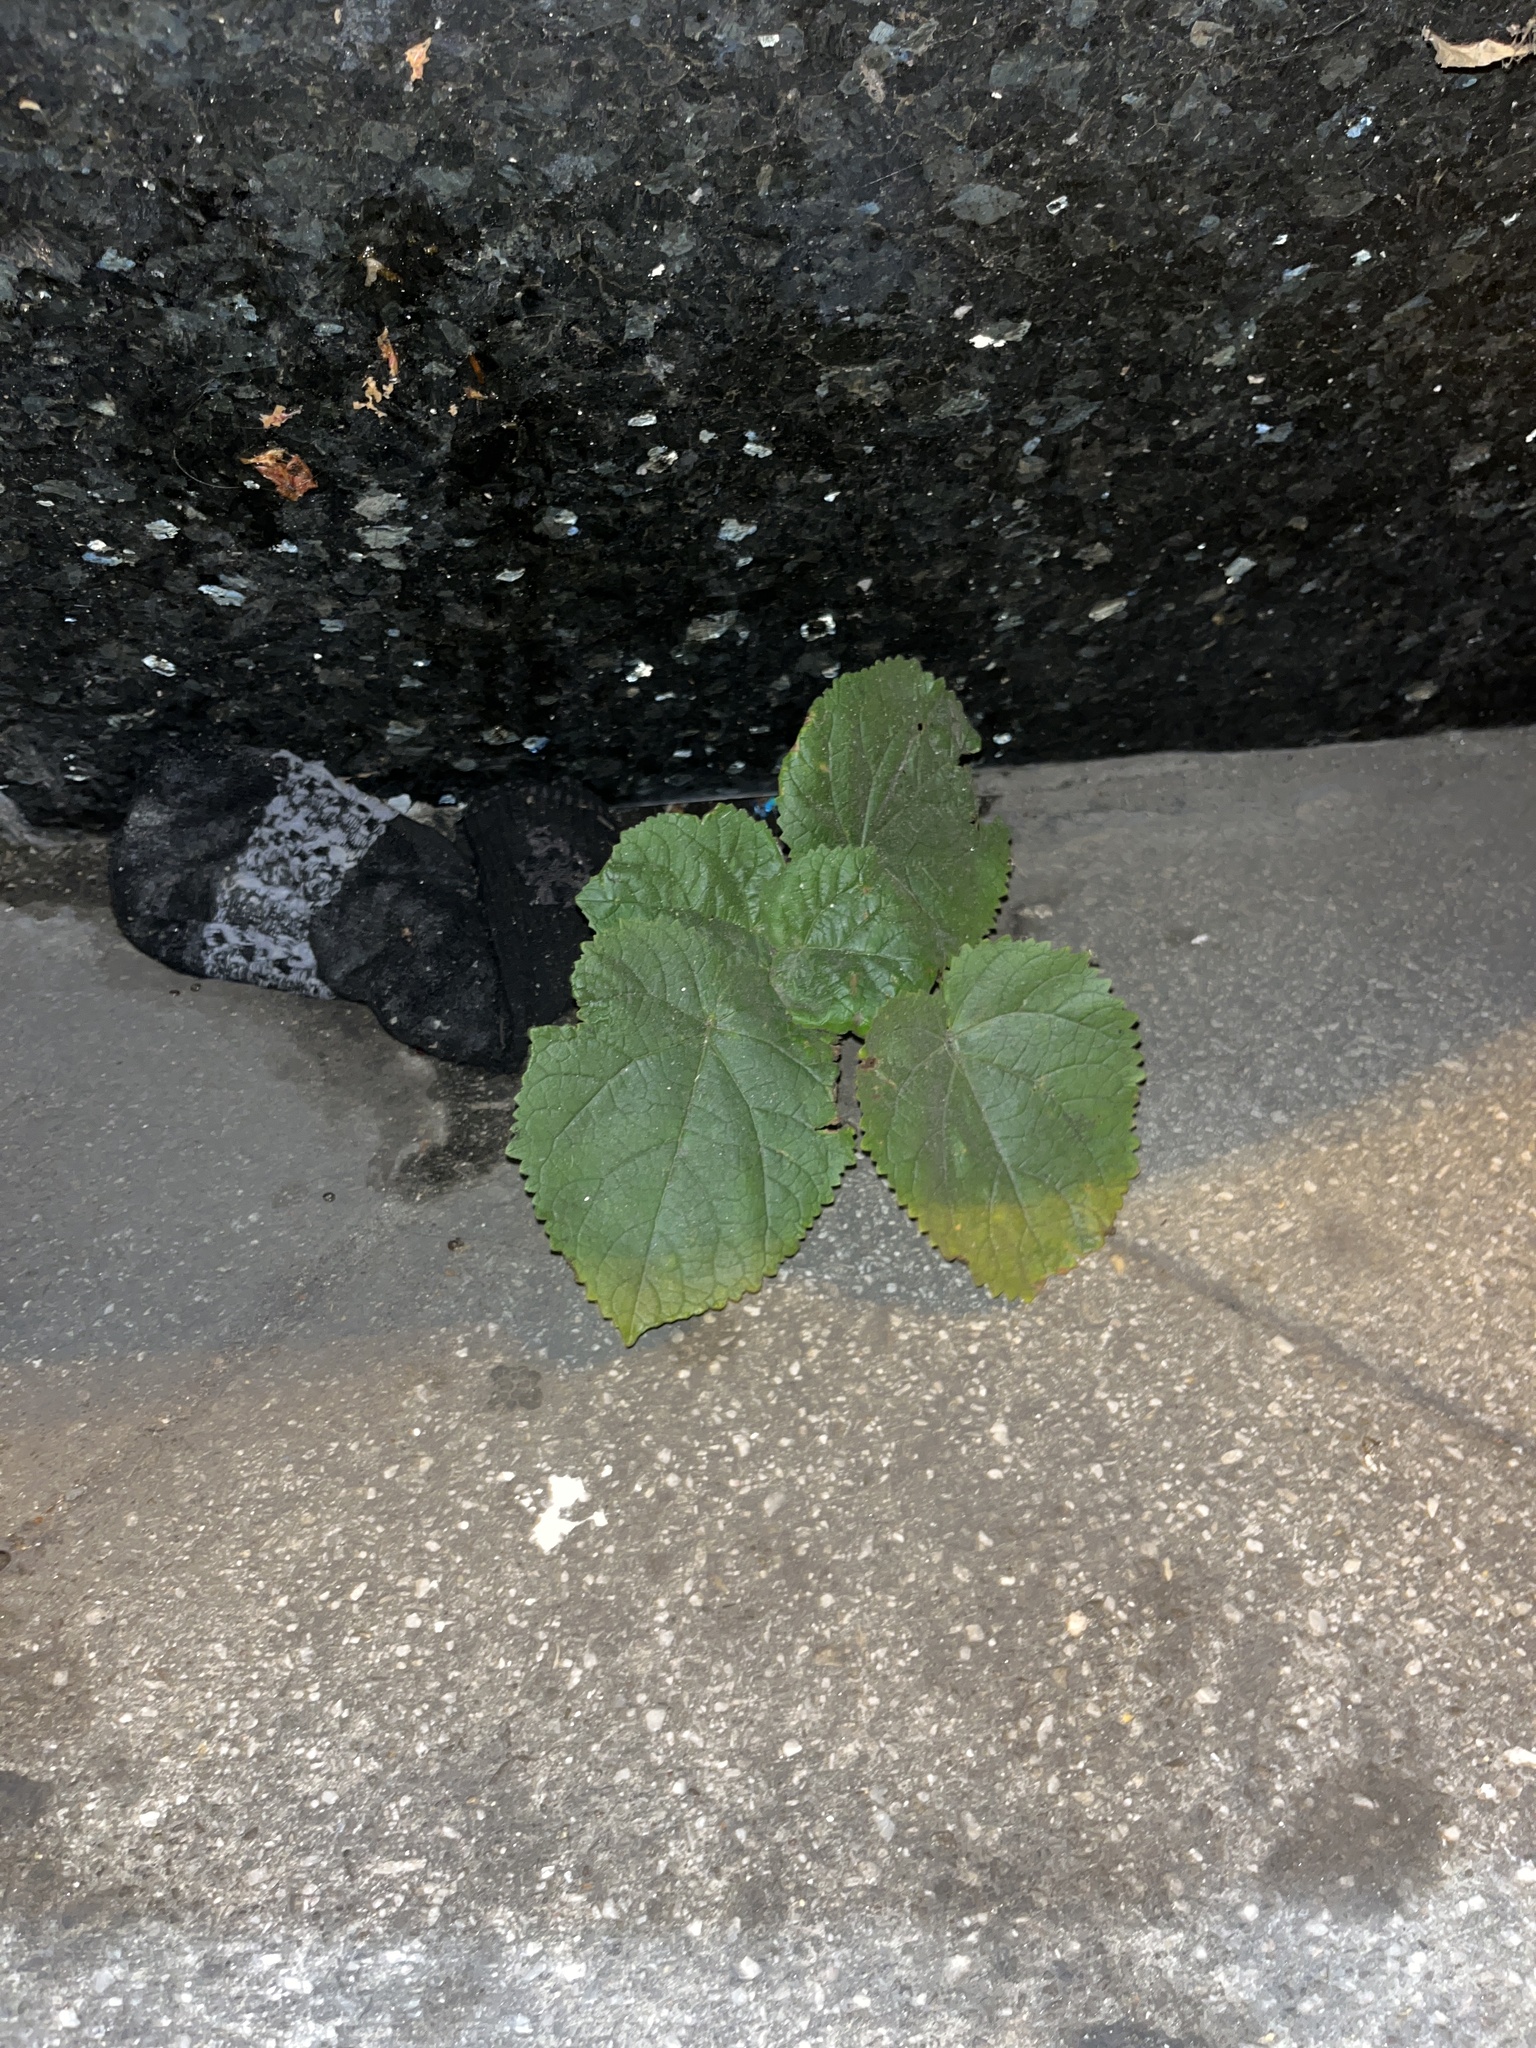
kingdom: Plantae
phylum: Tracheophyta
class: Magnoliopsida
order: Lamiales
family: Paulowniaceae
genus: Paulownia
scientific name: Paulownia tomentosa
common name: Foxglove-tree
